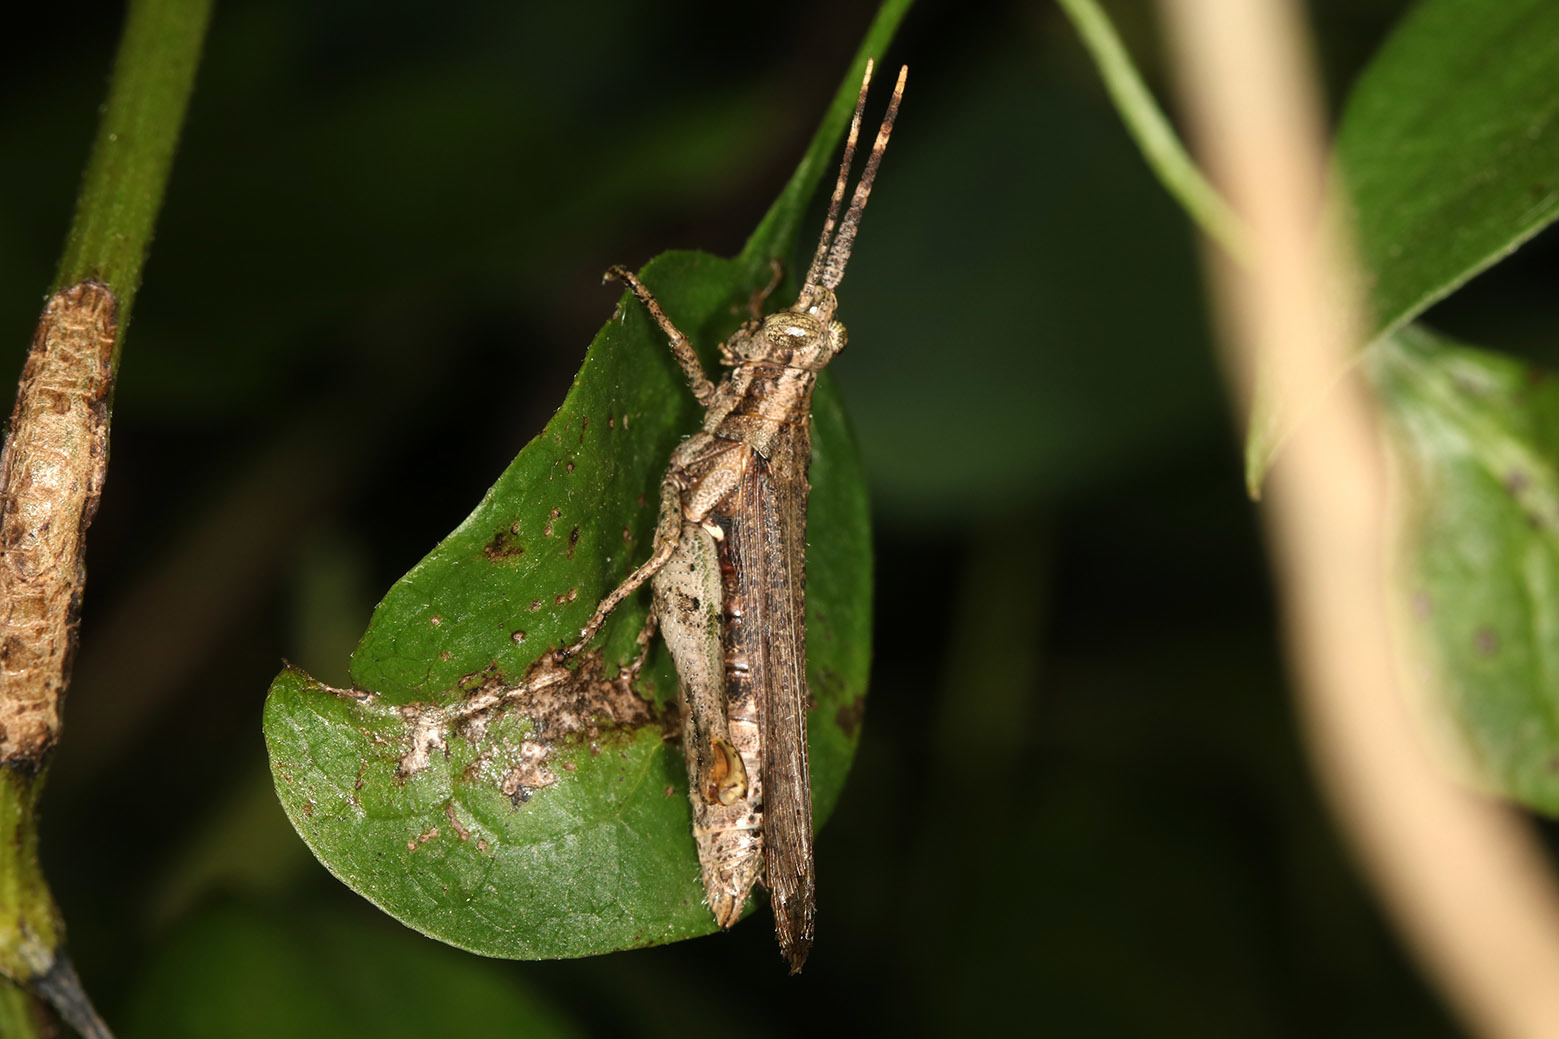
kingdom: Animalia
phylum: Arthropoda
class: Insecta
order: Orthoptera
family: Acrididae
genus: Osmiliola
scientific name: Osmiliola aurita
